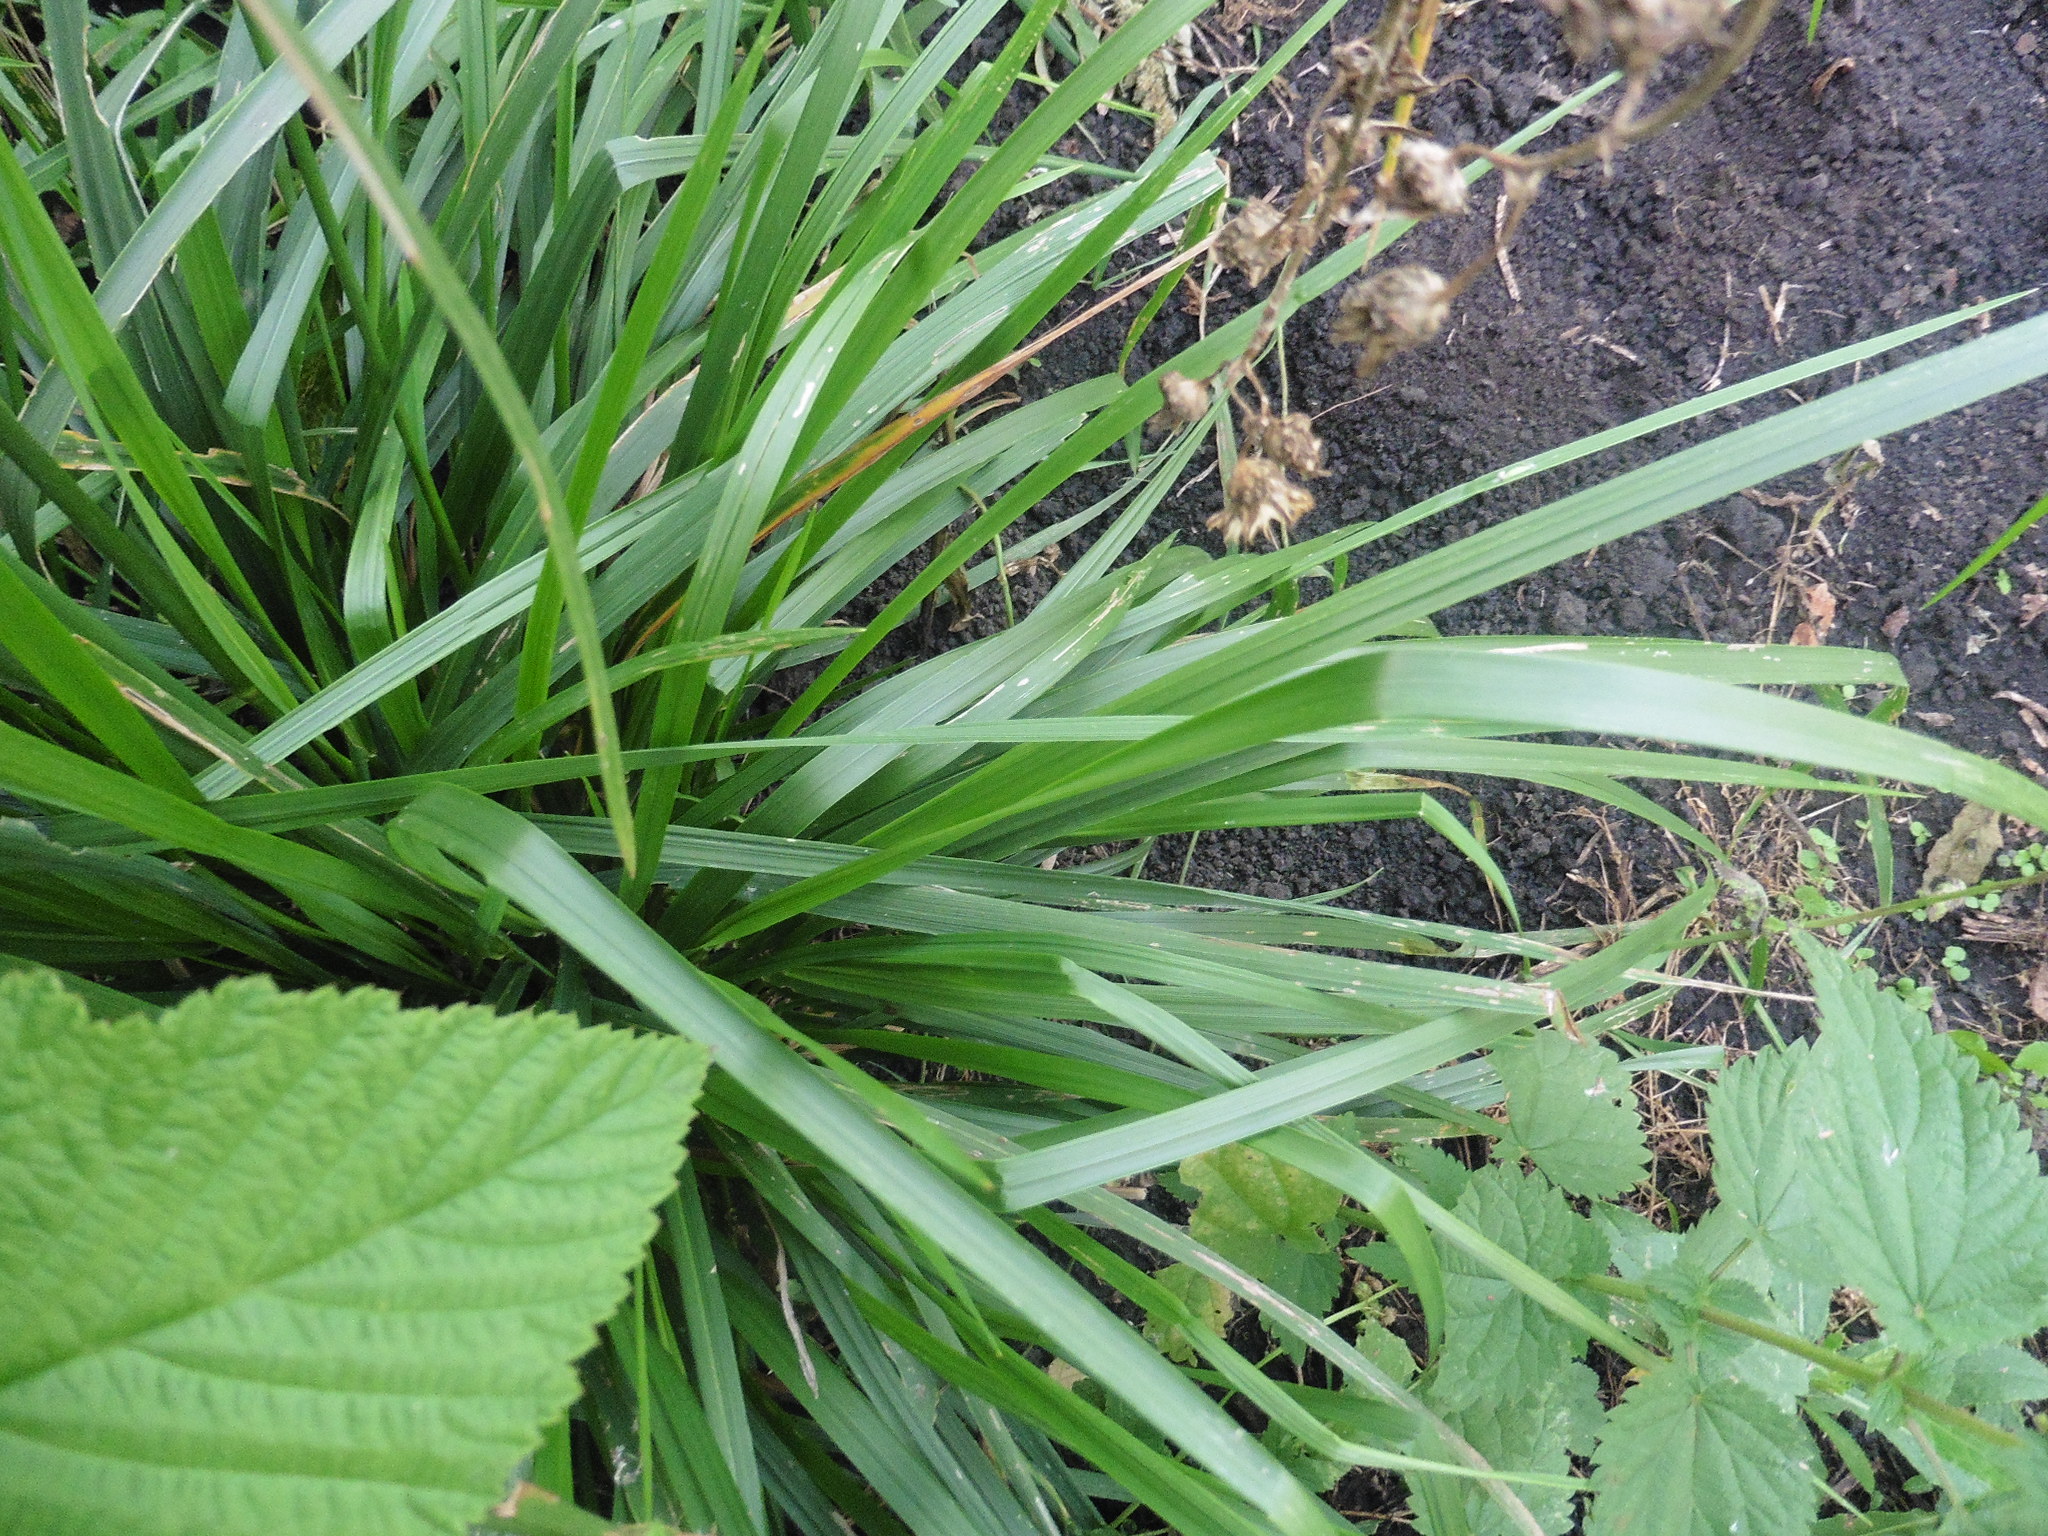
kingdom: Plantae
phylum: Tracheophyta
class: Liliopsida
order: Poales
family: Poaceae
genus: Lolium
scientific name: Lolium arundinaceum
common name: Reed fescue
